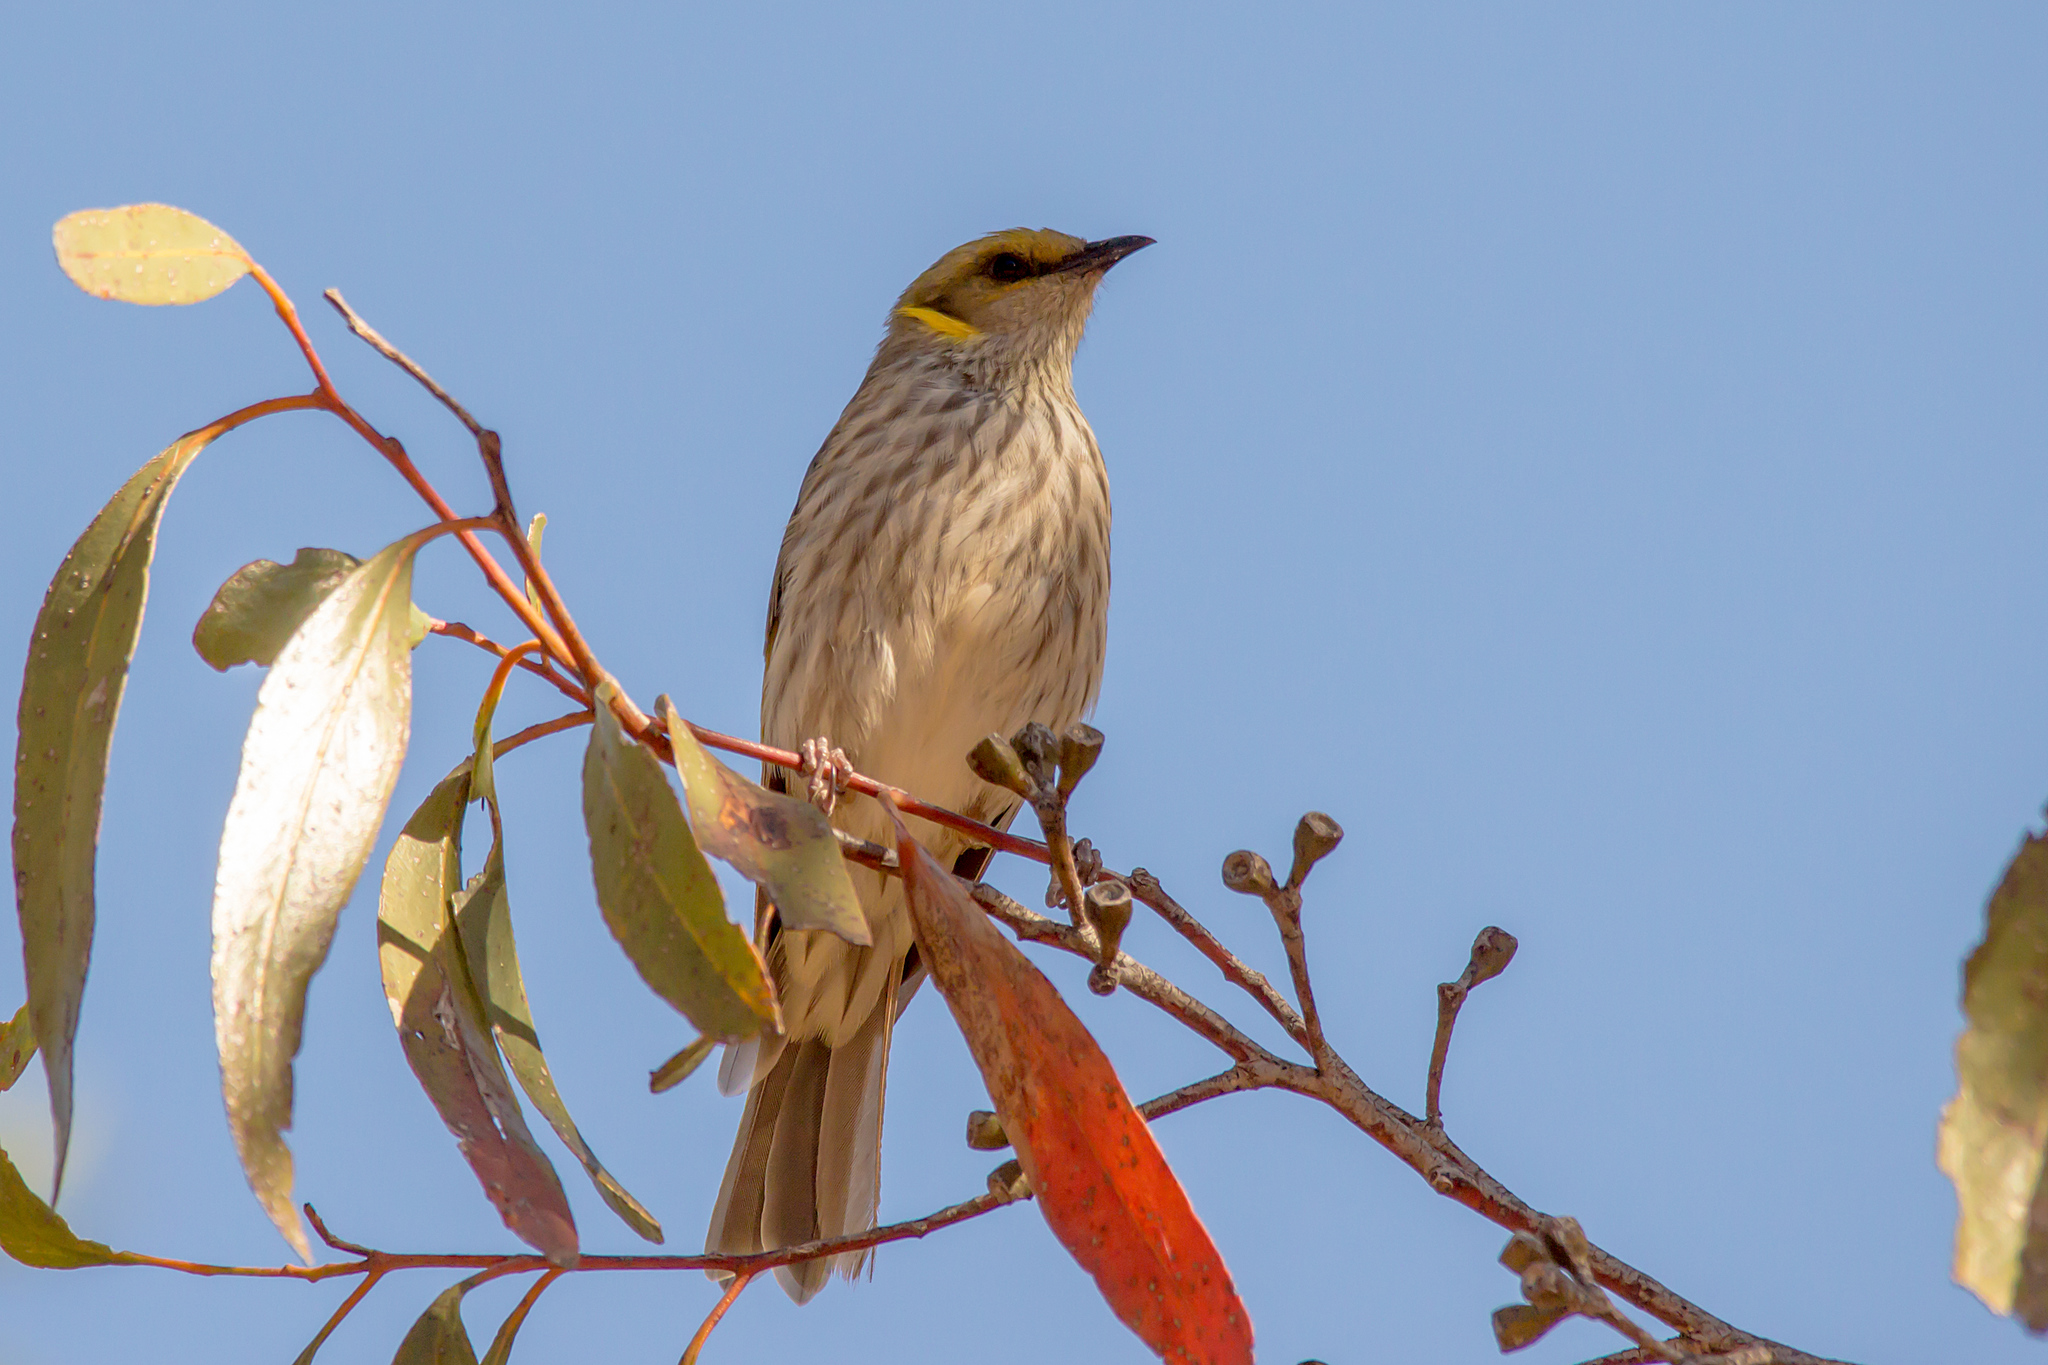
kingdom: Animalia
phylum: Chordata
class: Aves
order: Passeriformes
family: Meliphagidae
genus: Ptilotula
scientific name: Ptilotula ornata
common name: Yellow-plumed honeyeater
